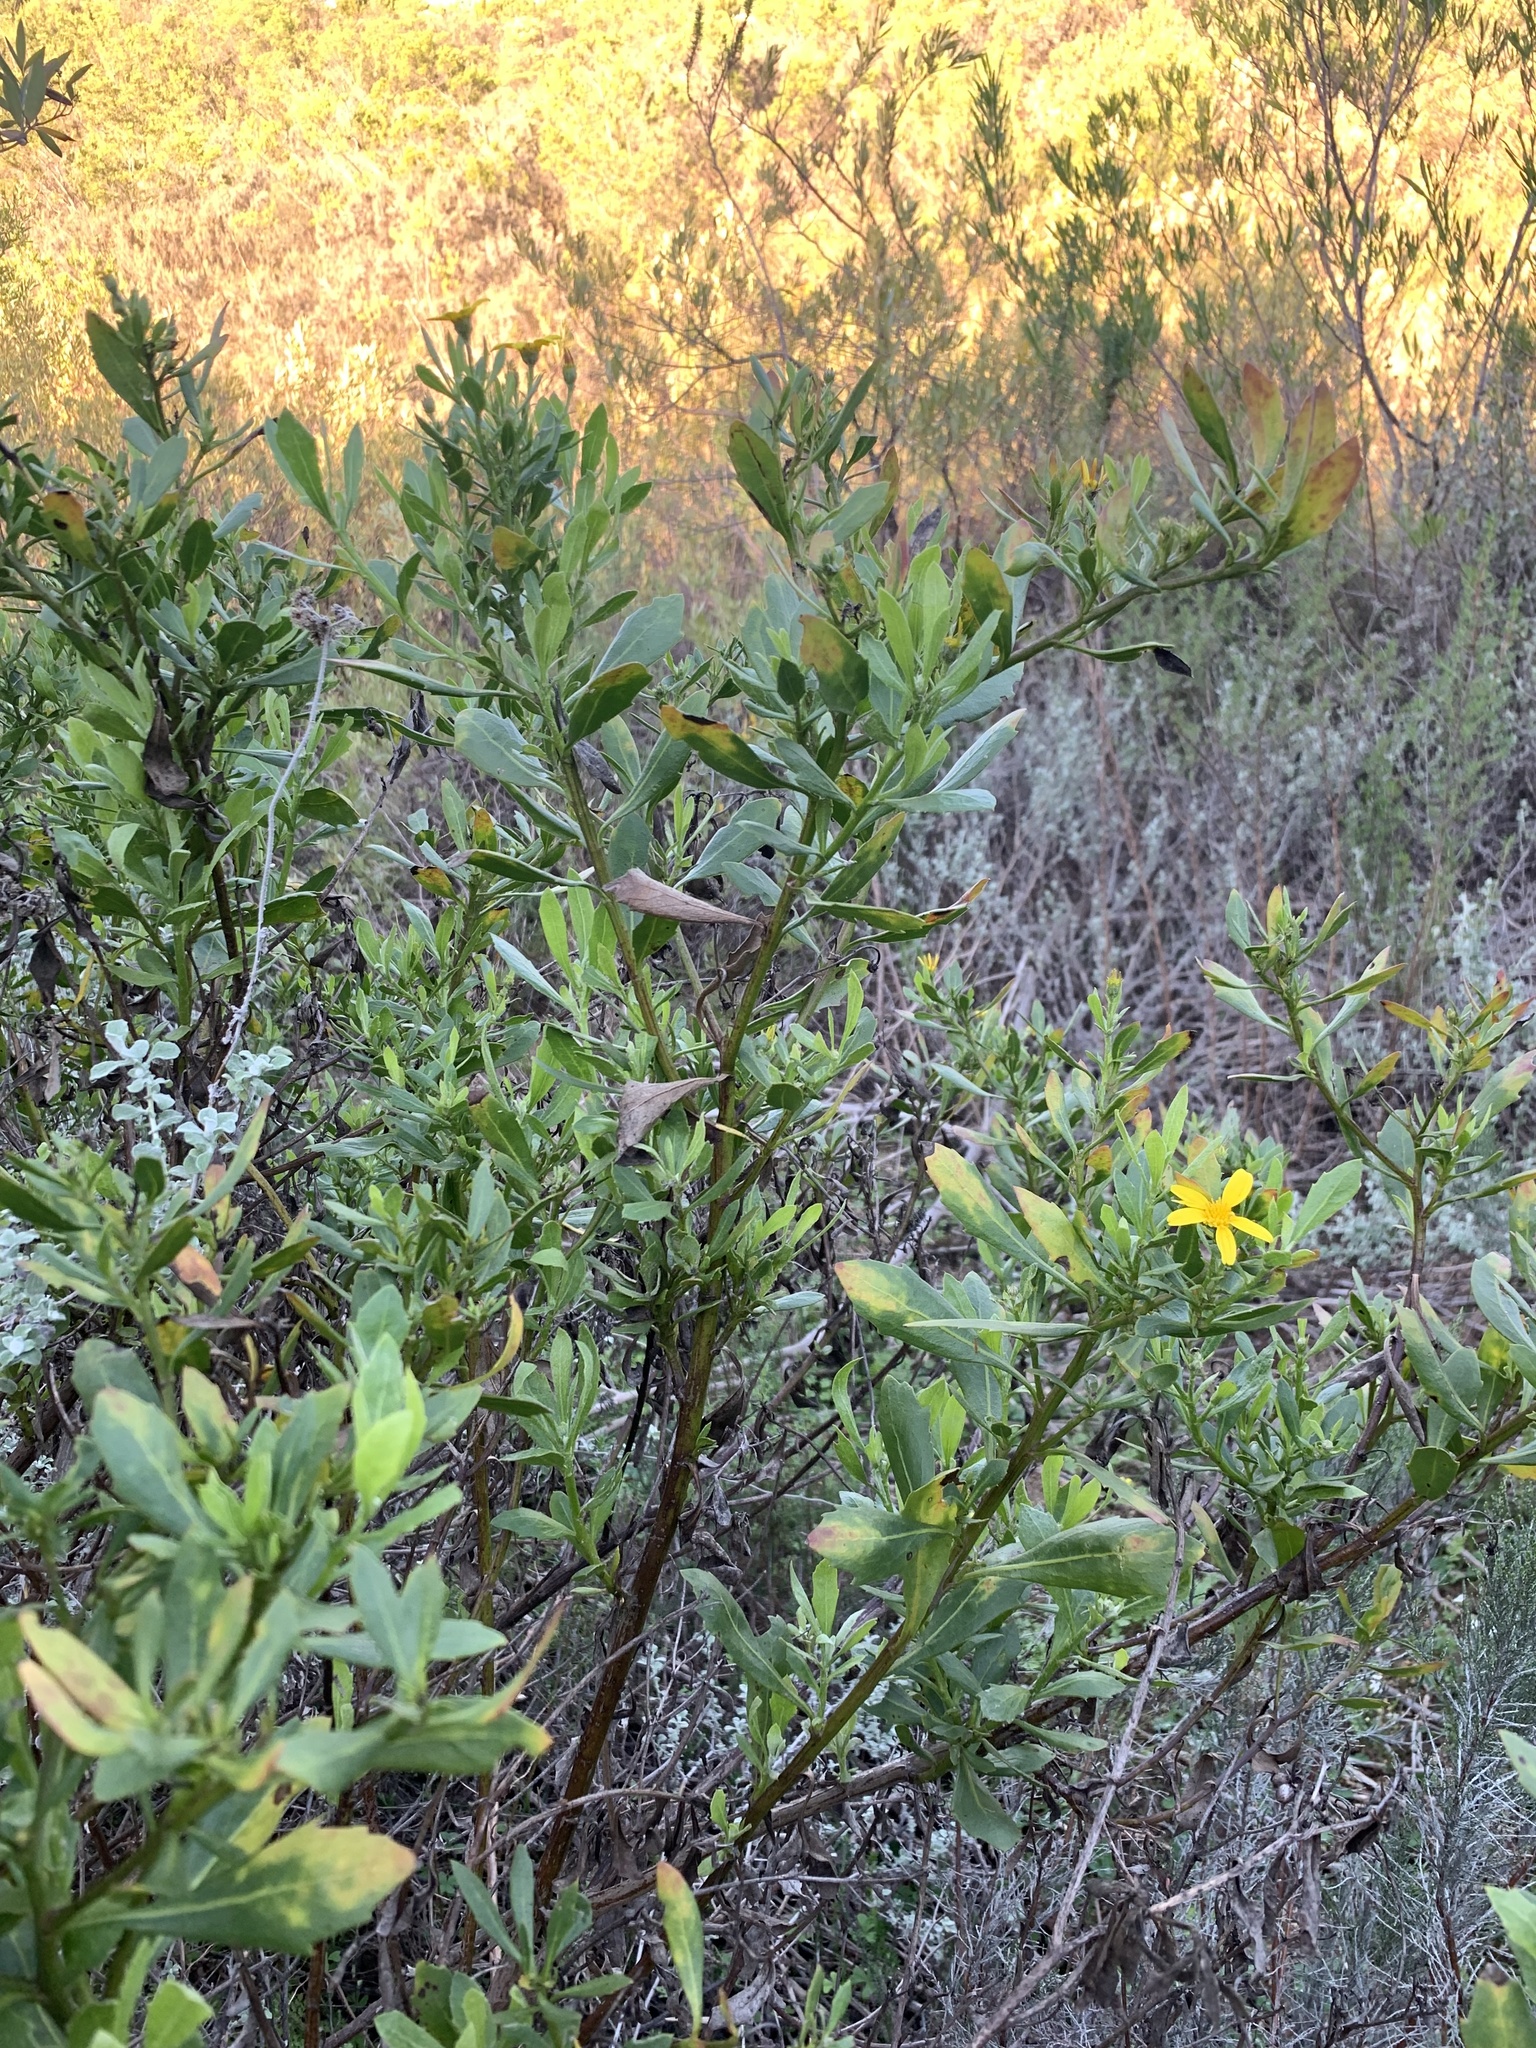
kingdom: Plantae
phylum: Tracheophyta
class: Magnoliopsida
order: Asterales
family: Asteraceae
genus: Osteospermum
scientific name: Osteospermum moniliferum
